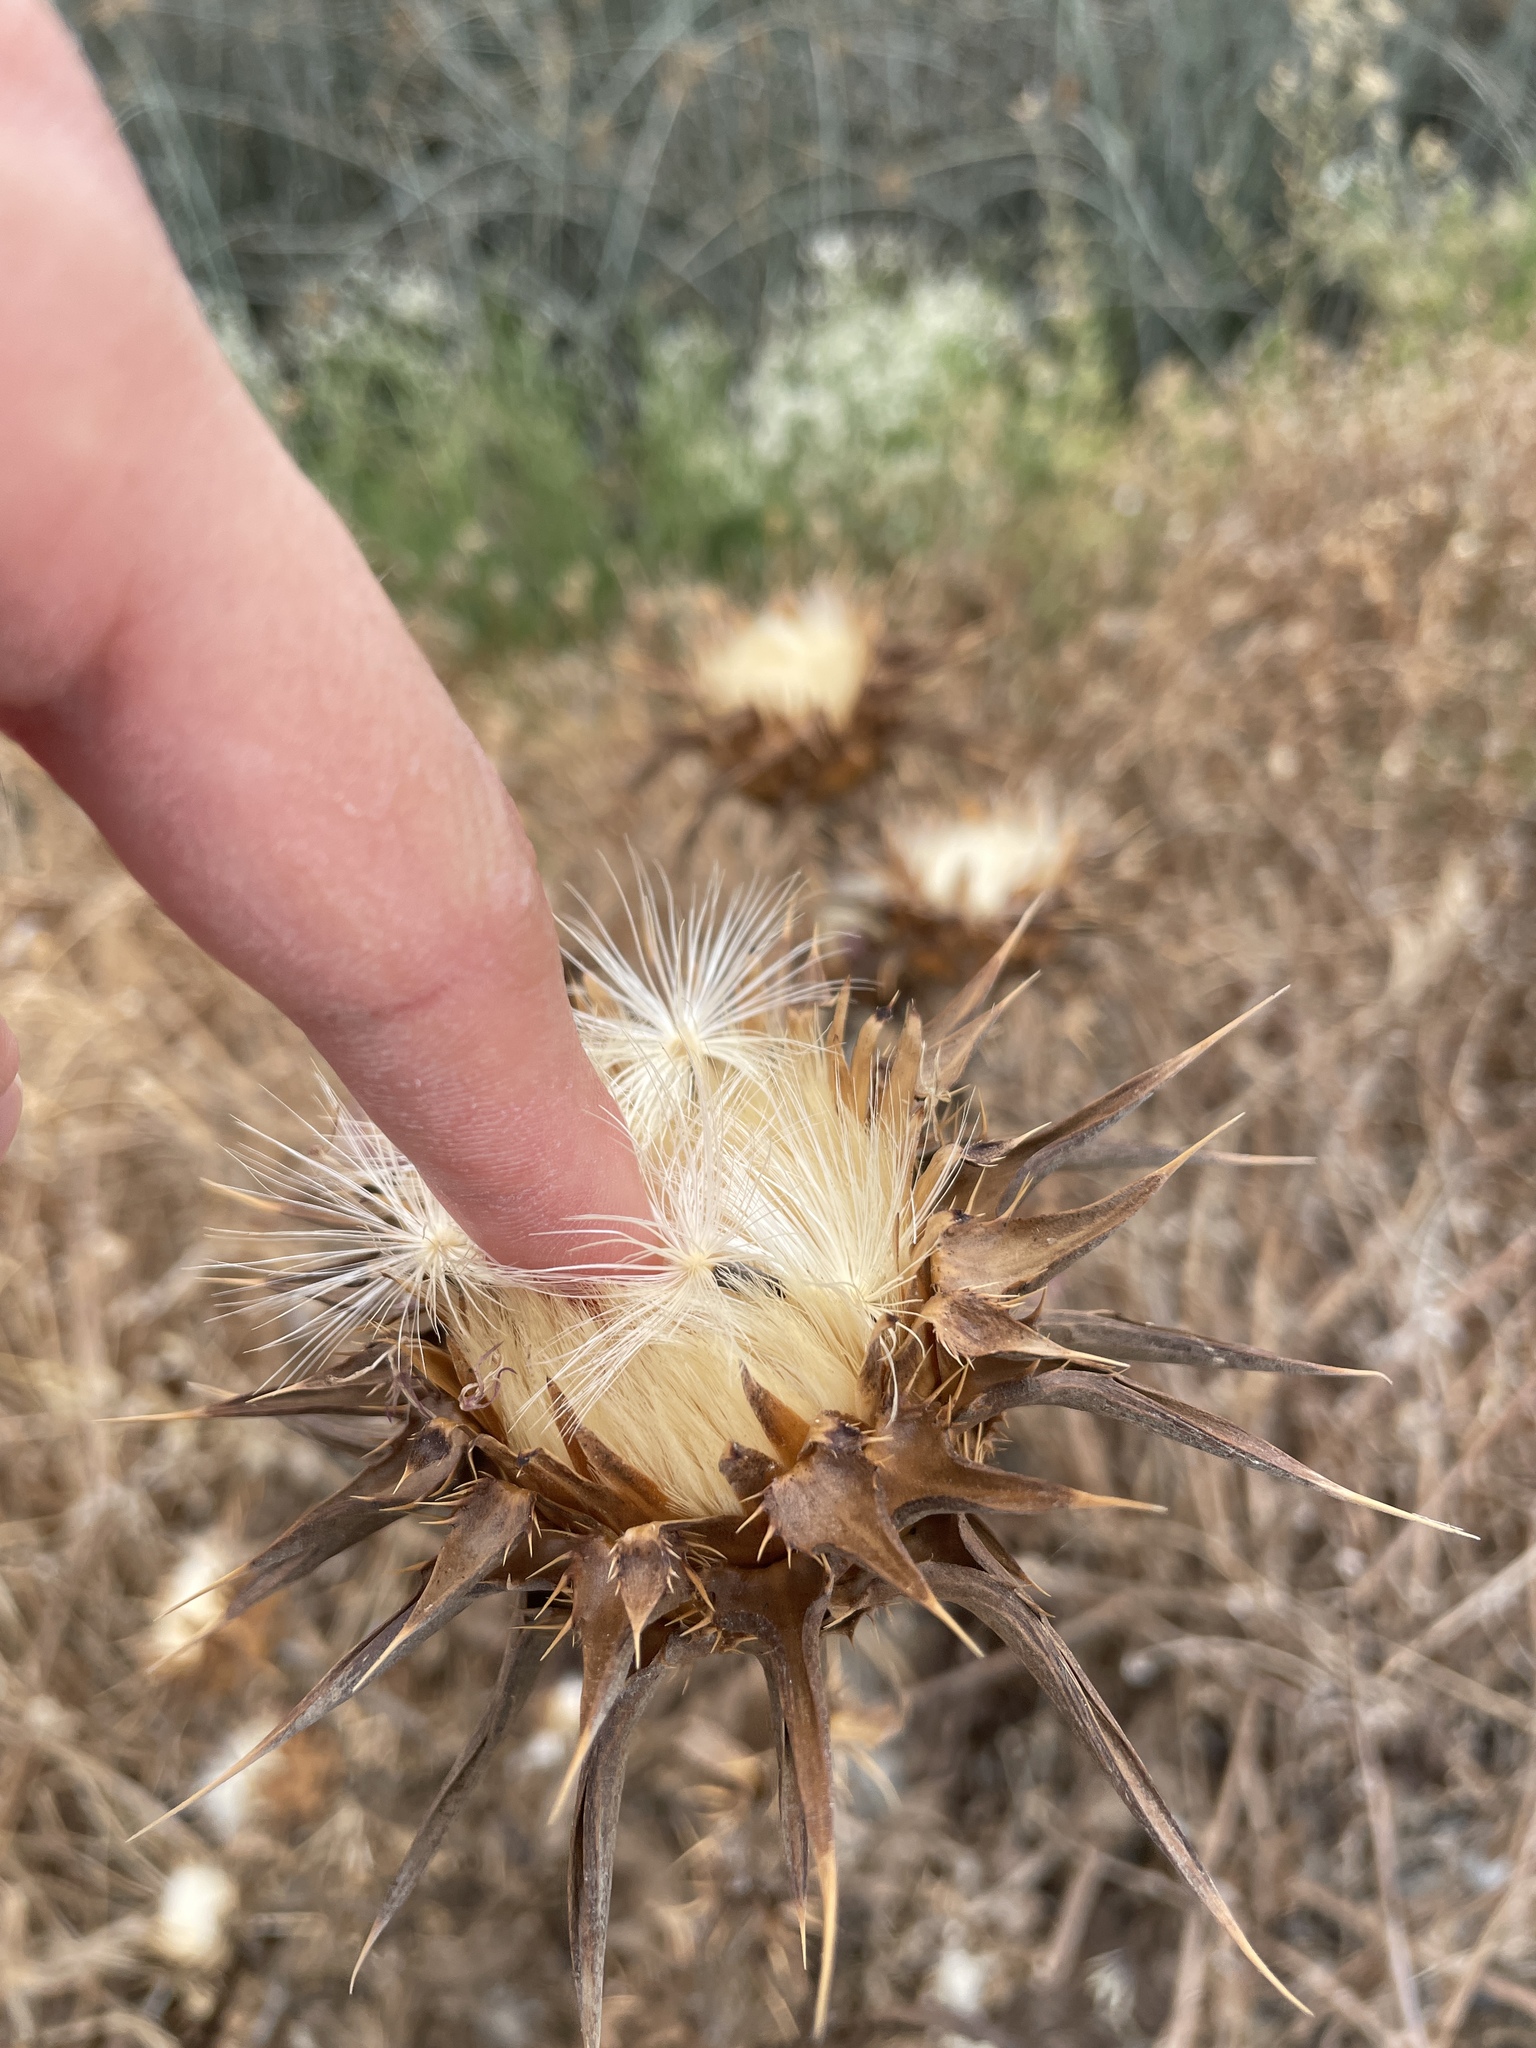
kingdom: Plantae
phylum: Tracheophyta
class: Magnoliopsida
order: Asterales
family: Asteraceae
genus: Silybum
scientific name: Silybum marianum
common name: Milk thistle
